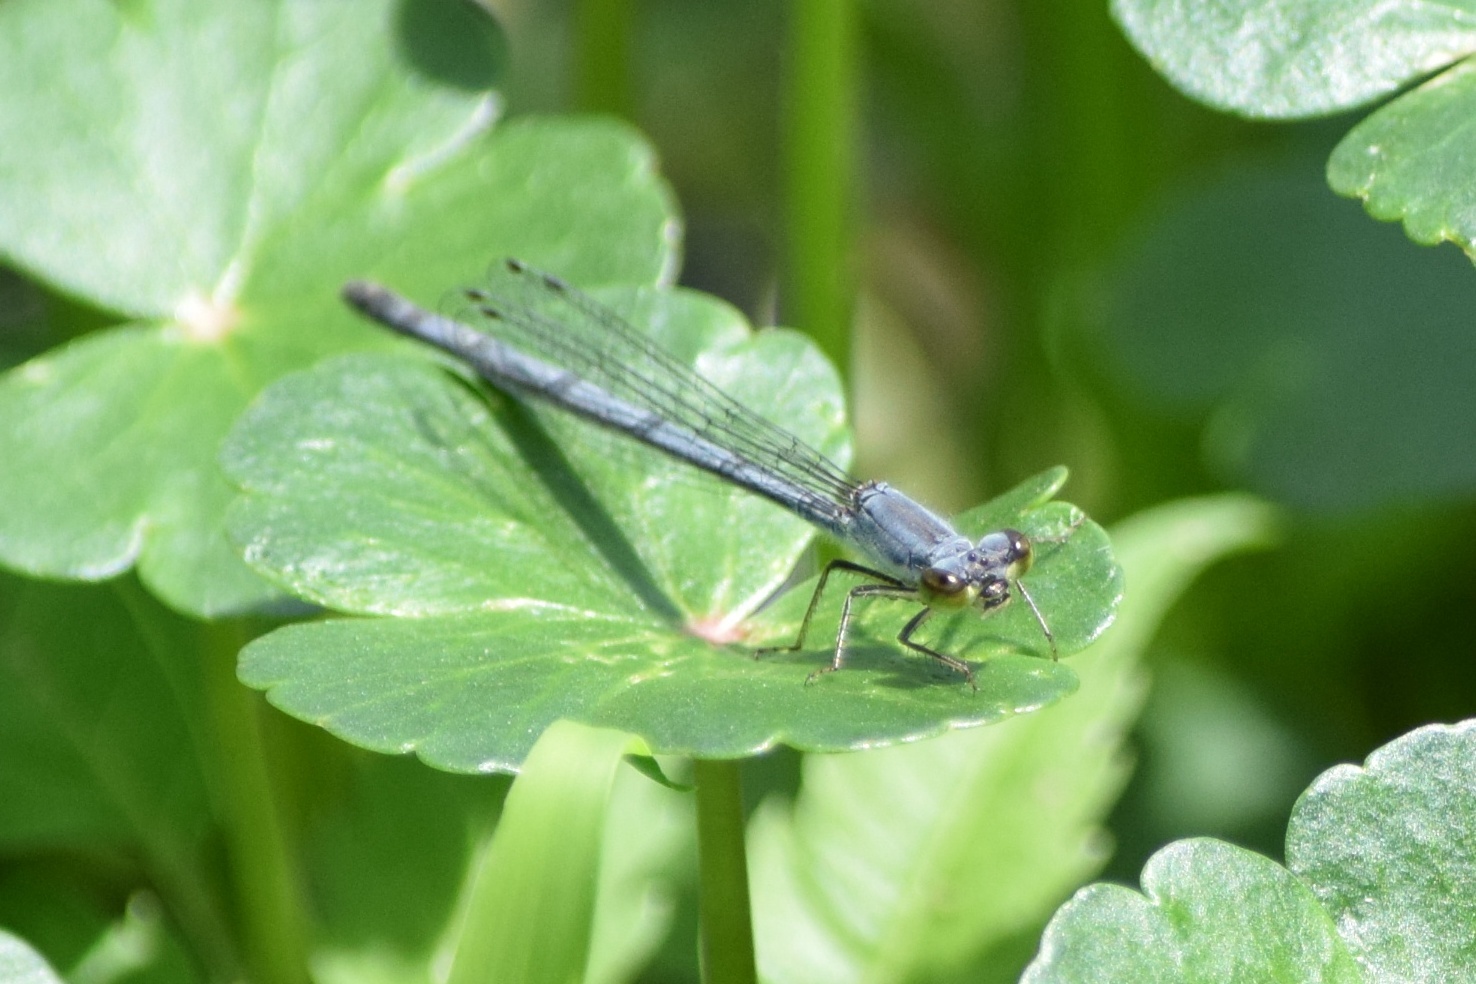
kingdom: Animalia
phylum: Arthropoda
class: Insecta
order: Odonata
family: Coenagrionidae
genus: Ischnura
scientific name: Ischnura posita
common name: Fragile forktail
